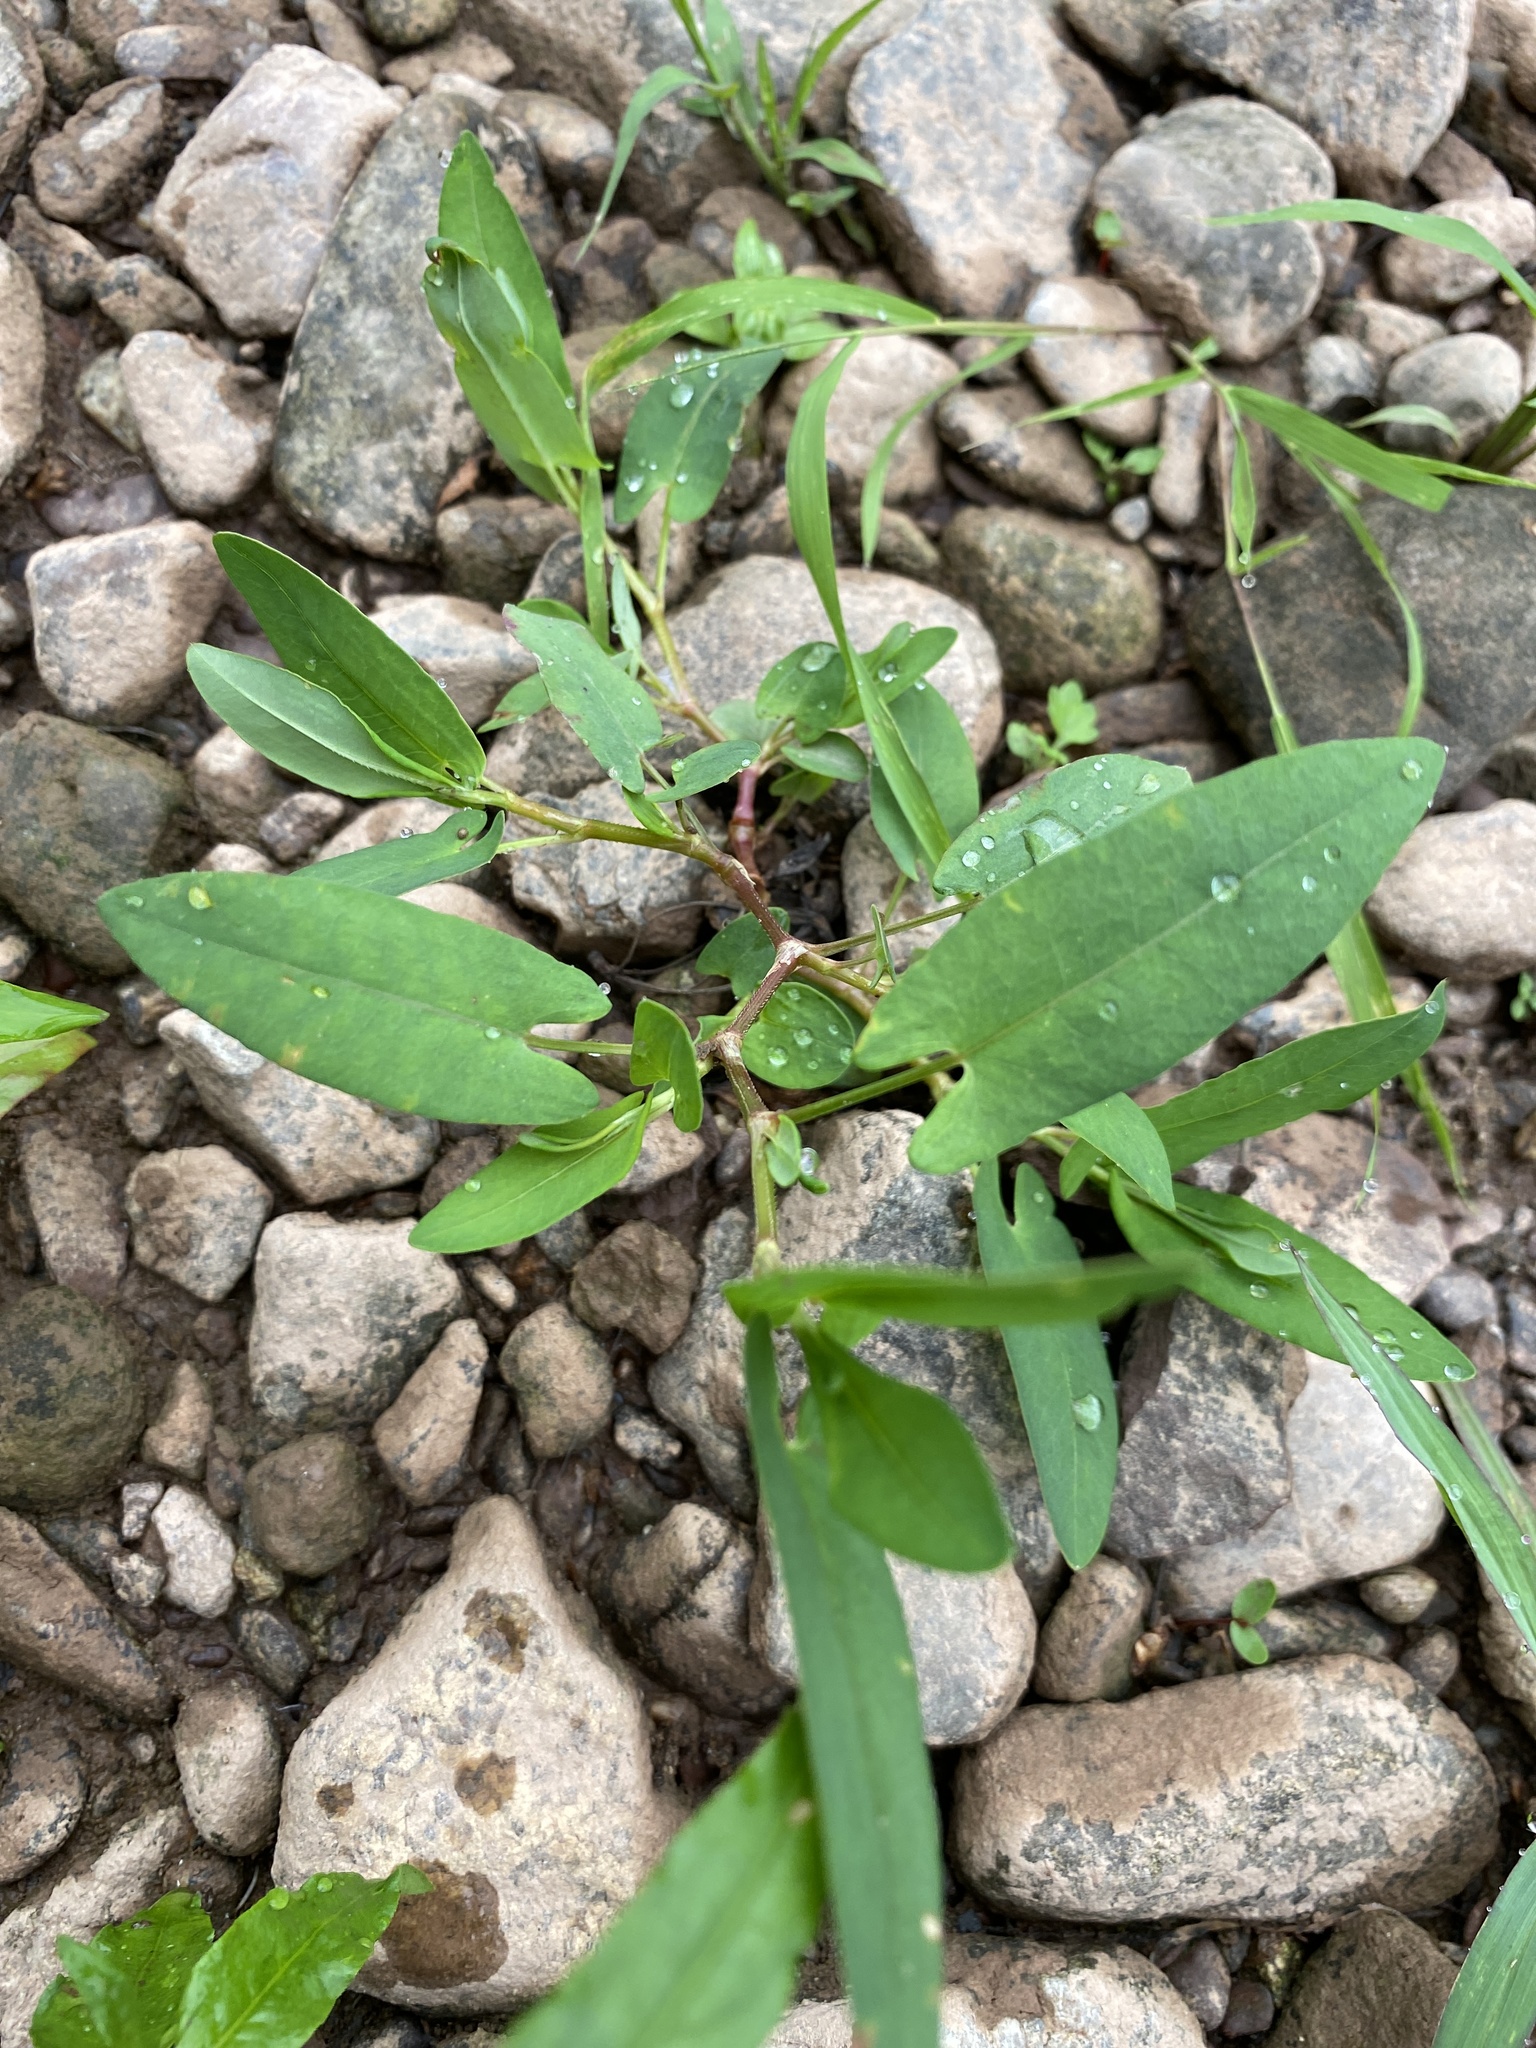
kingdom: Plantae
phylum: Tracheophyta
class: Magnoliopsida
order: Caryophyllales
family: Polygonaceae
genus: Persicaria
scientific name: Persicaria sagittata
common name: American tearthumb
